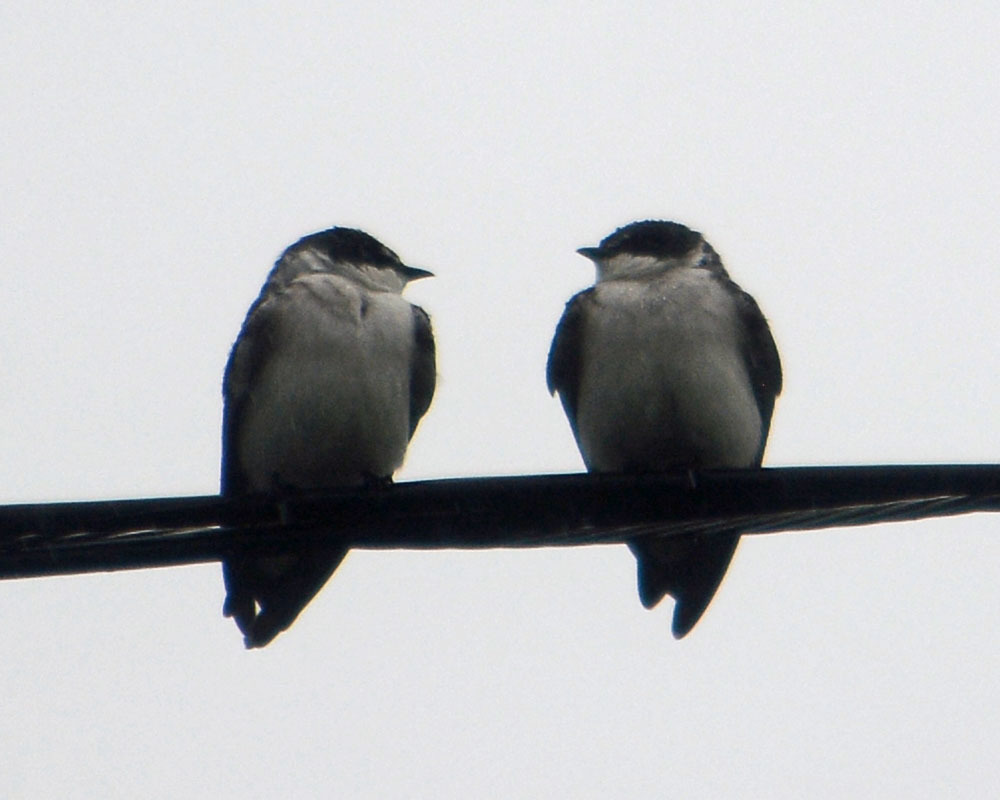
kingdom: Animalia
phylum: Chordata
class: Aves
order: Passeriformes
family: Hirundinidae
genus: Tachycineta
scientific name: Tachycineta albilinea
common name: Mangrove swallow
